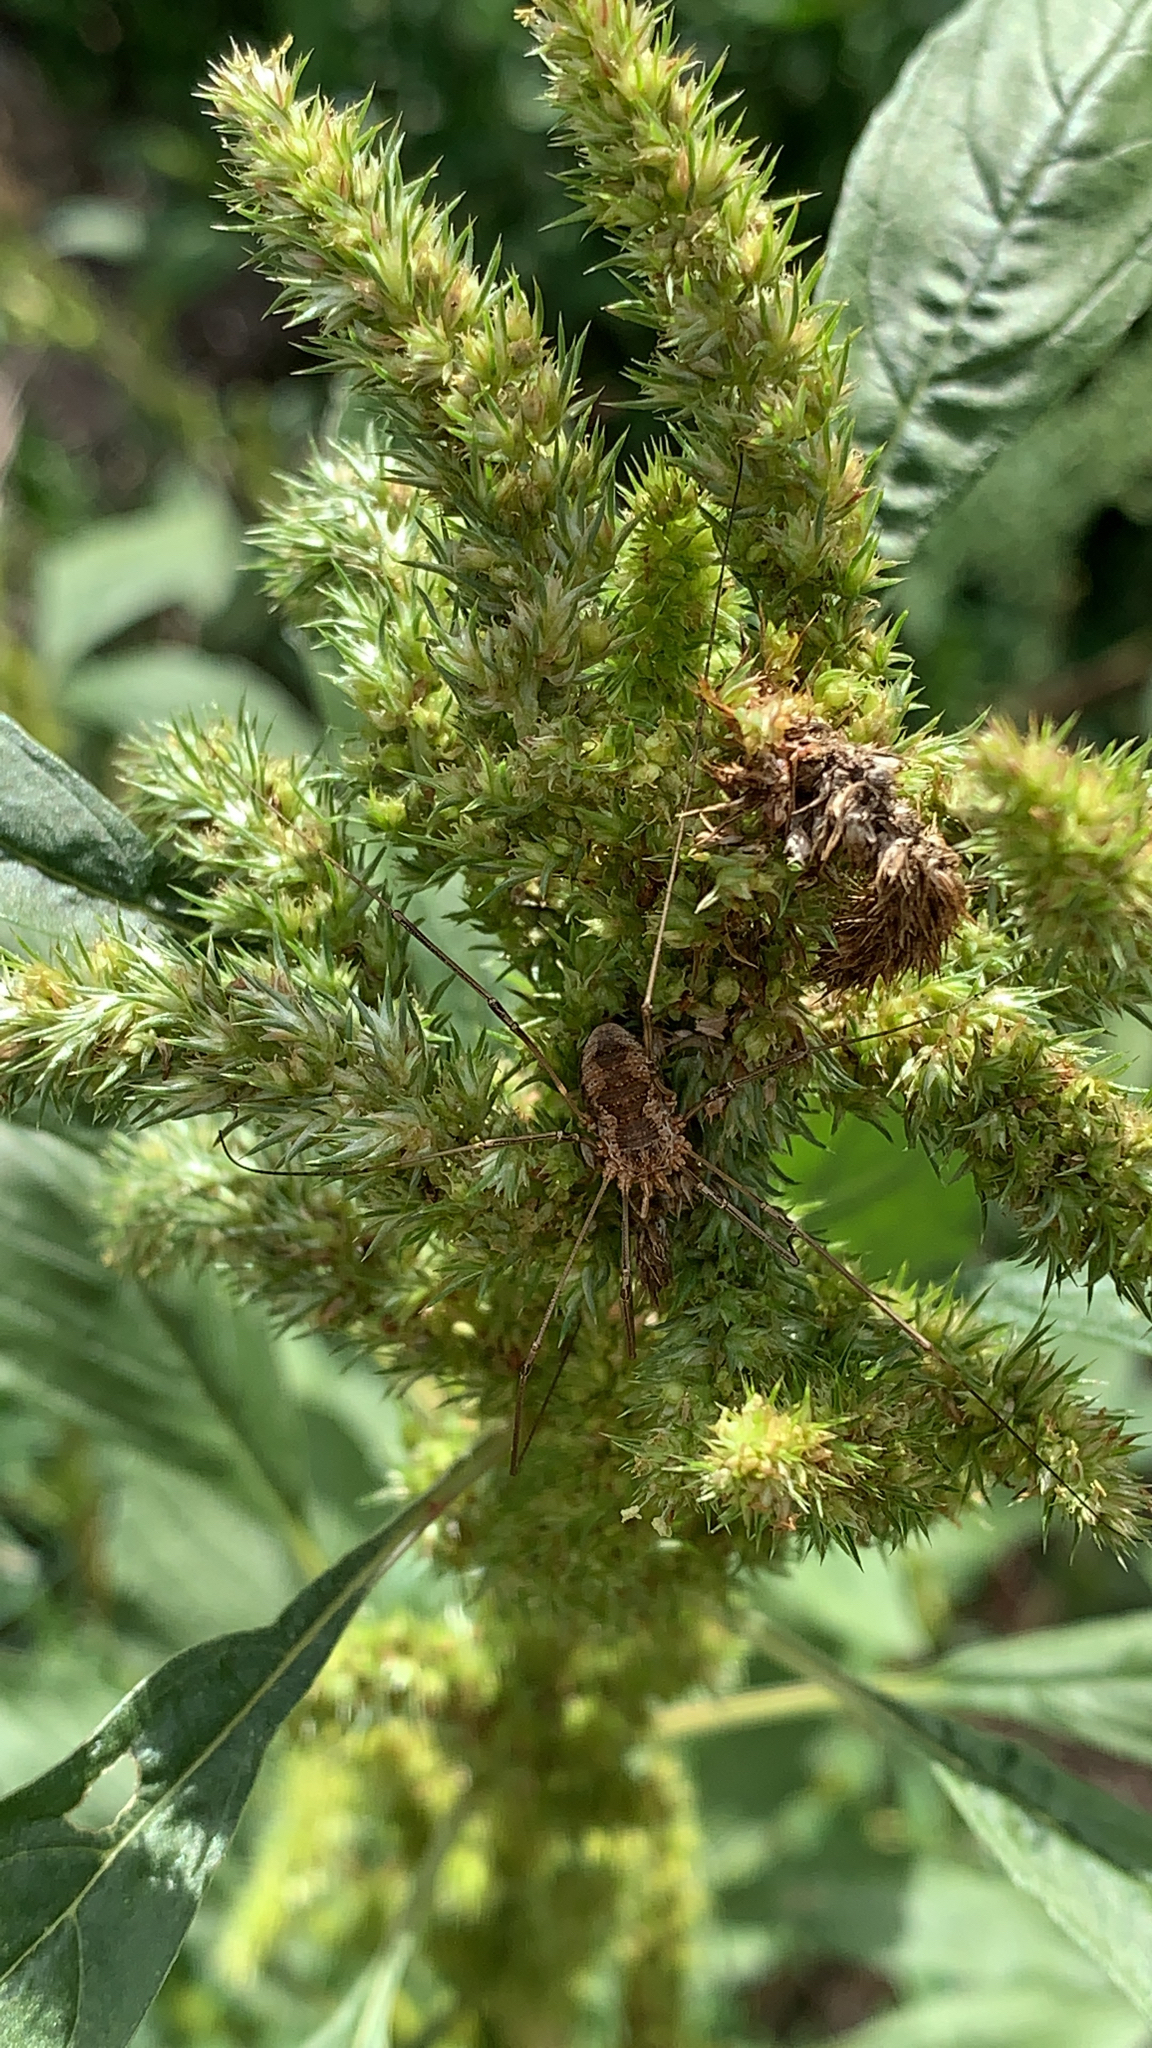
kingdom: Animalia
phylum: Arthropoda
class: Arachnida
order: Opiliones
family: Phalangiidae
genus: Phalangium
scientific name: Phalangium opilio
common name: Daddy longleg
